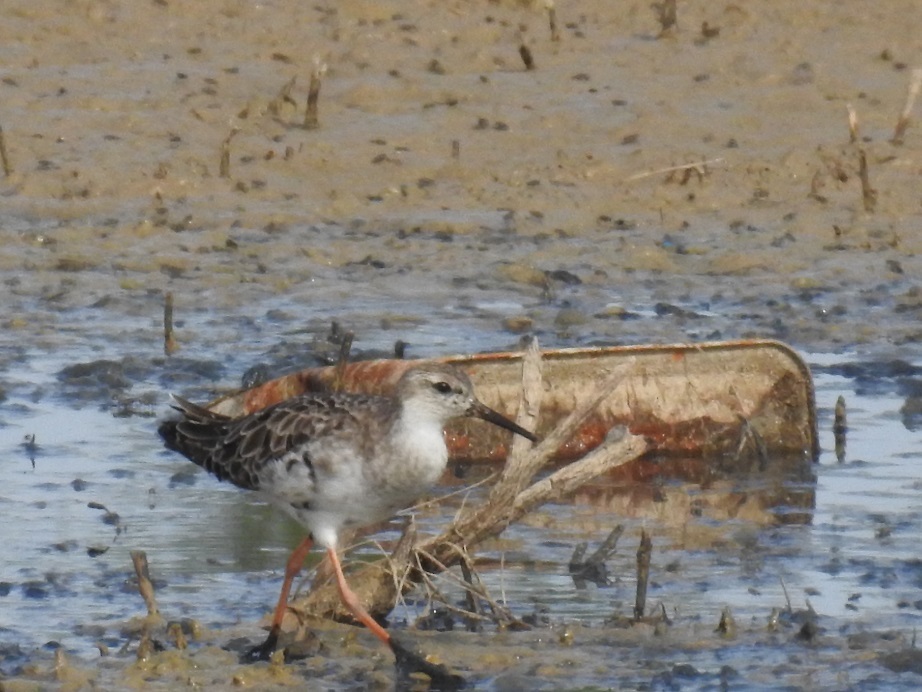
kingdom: Animalia
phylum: Chordata
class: Aves
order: Charadriiformes
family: Scolopacidae
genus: Calidris
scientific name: Calidris pugnax
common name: Ruff
